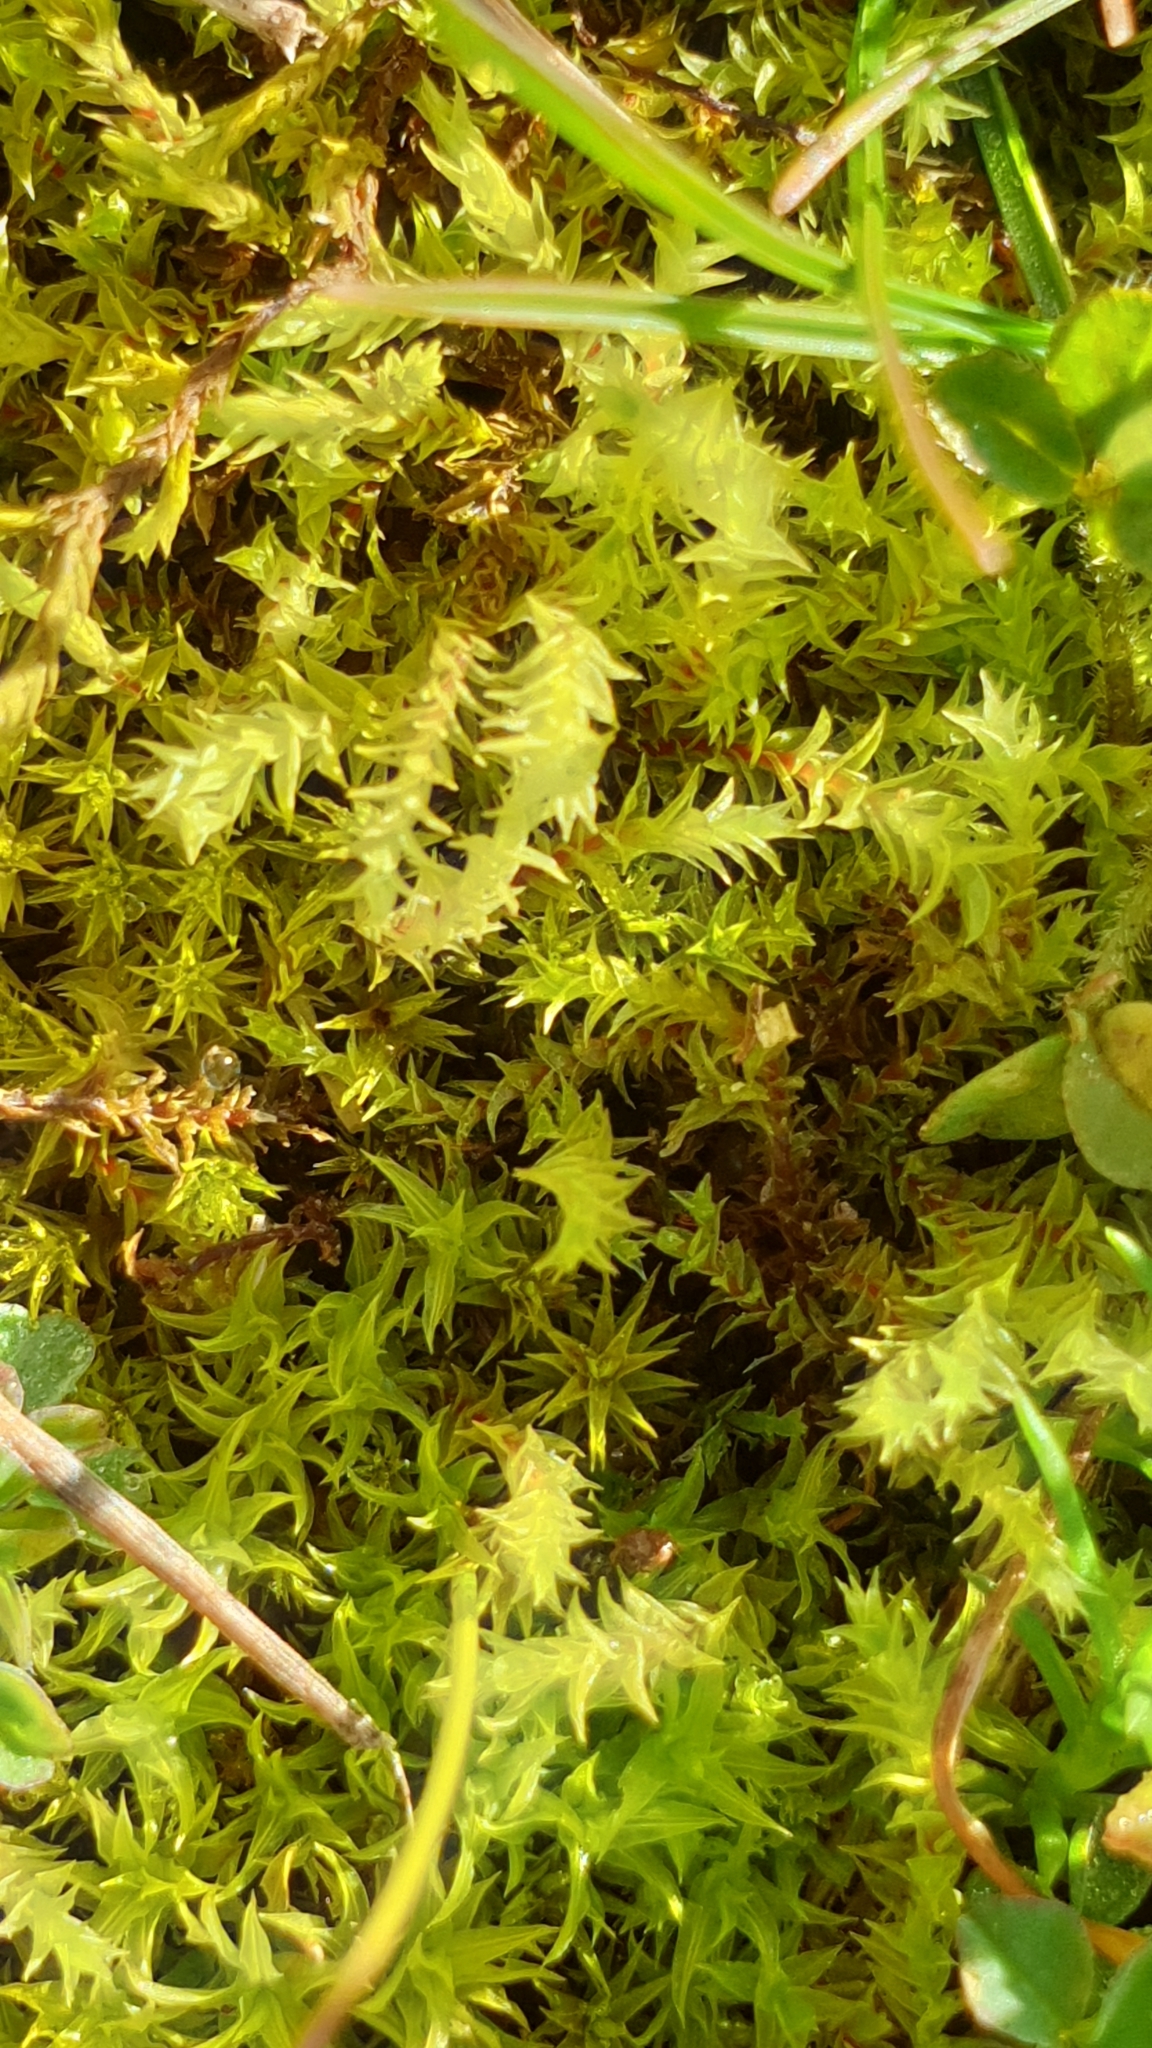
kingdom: Plantae
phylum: Bryophyta
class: Bryopsida
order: Pottiales
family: Pottiaceae
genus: Triquetrella
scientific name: Triquetrella papillata
